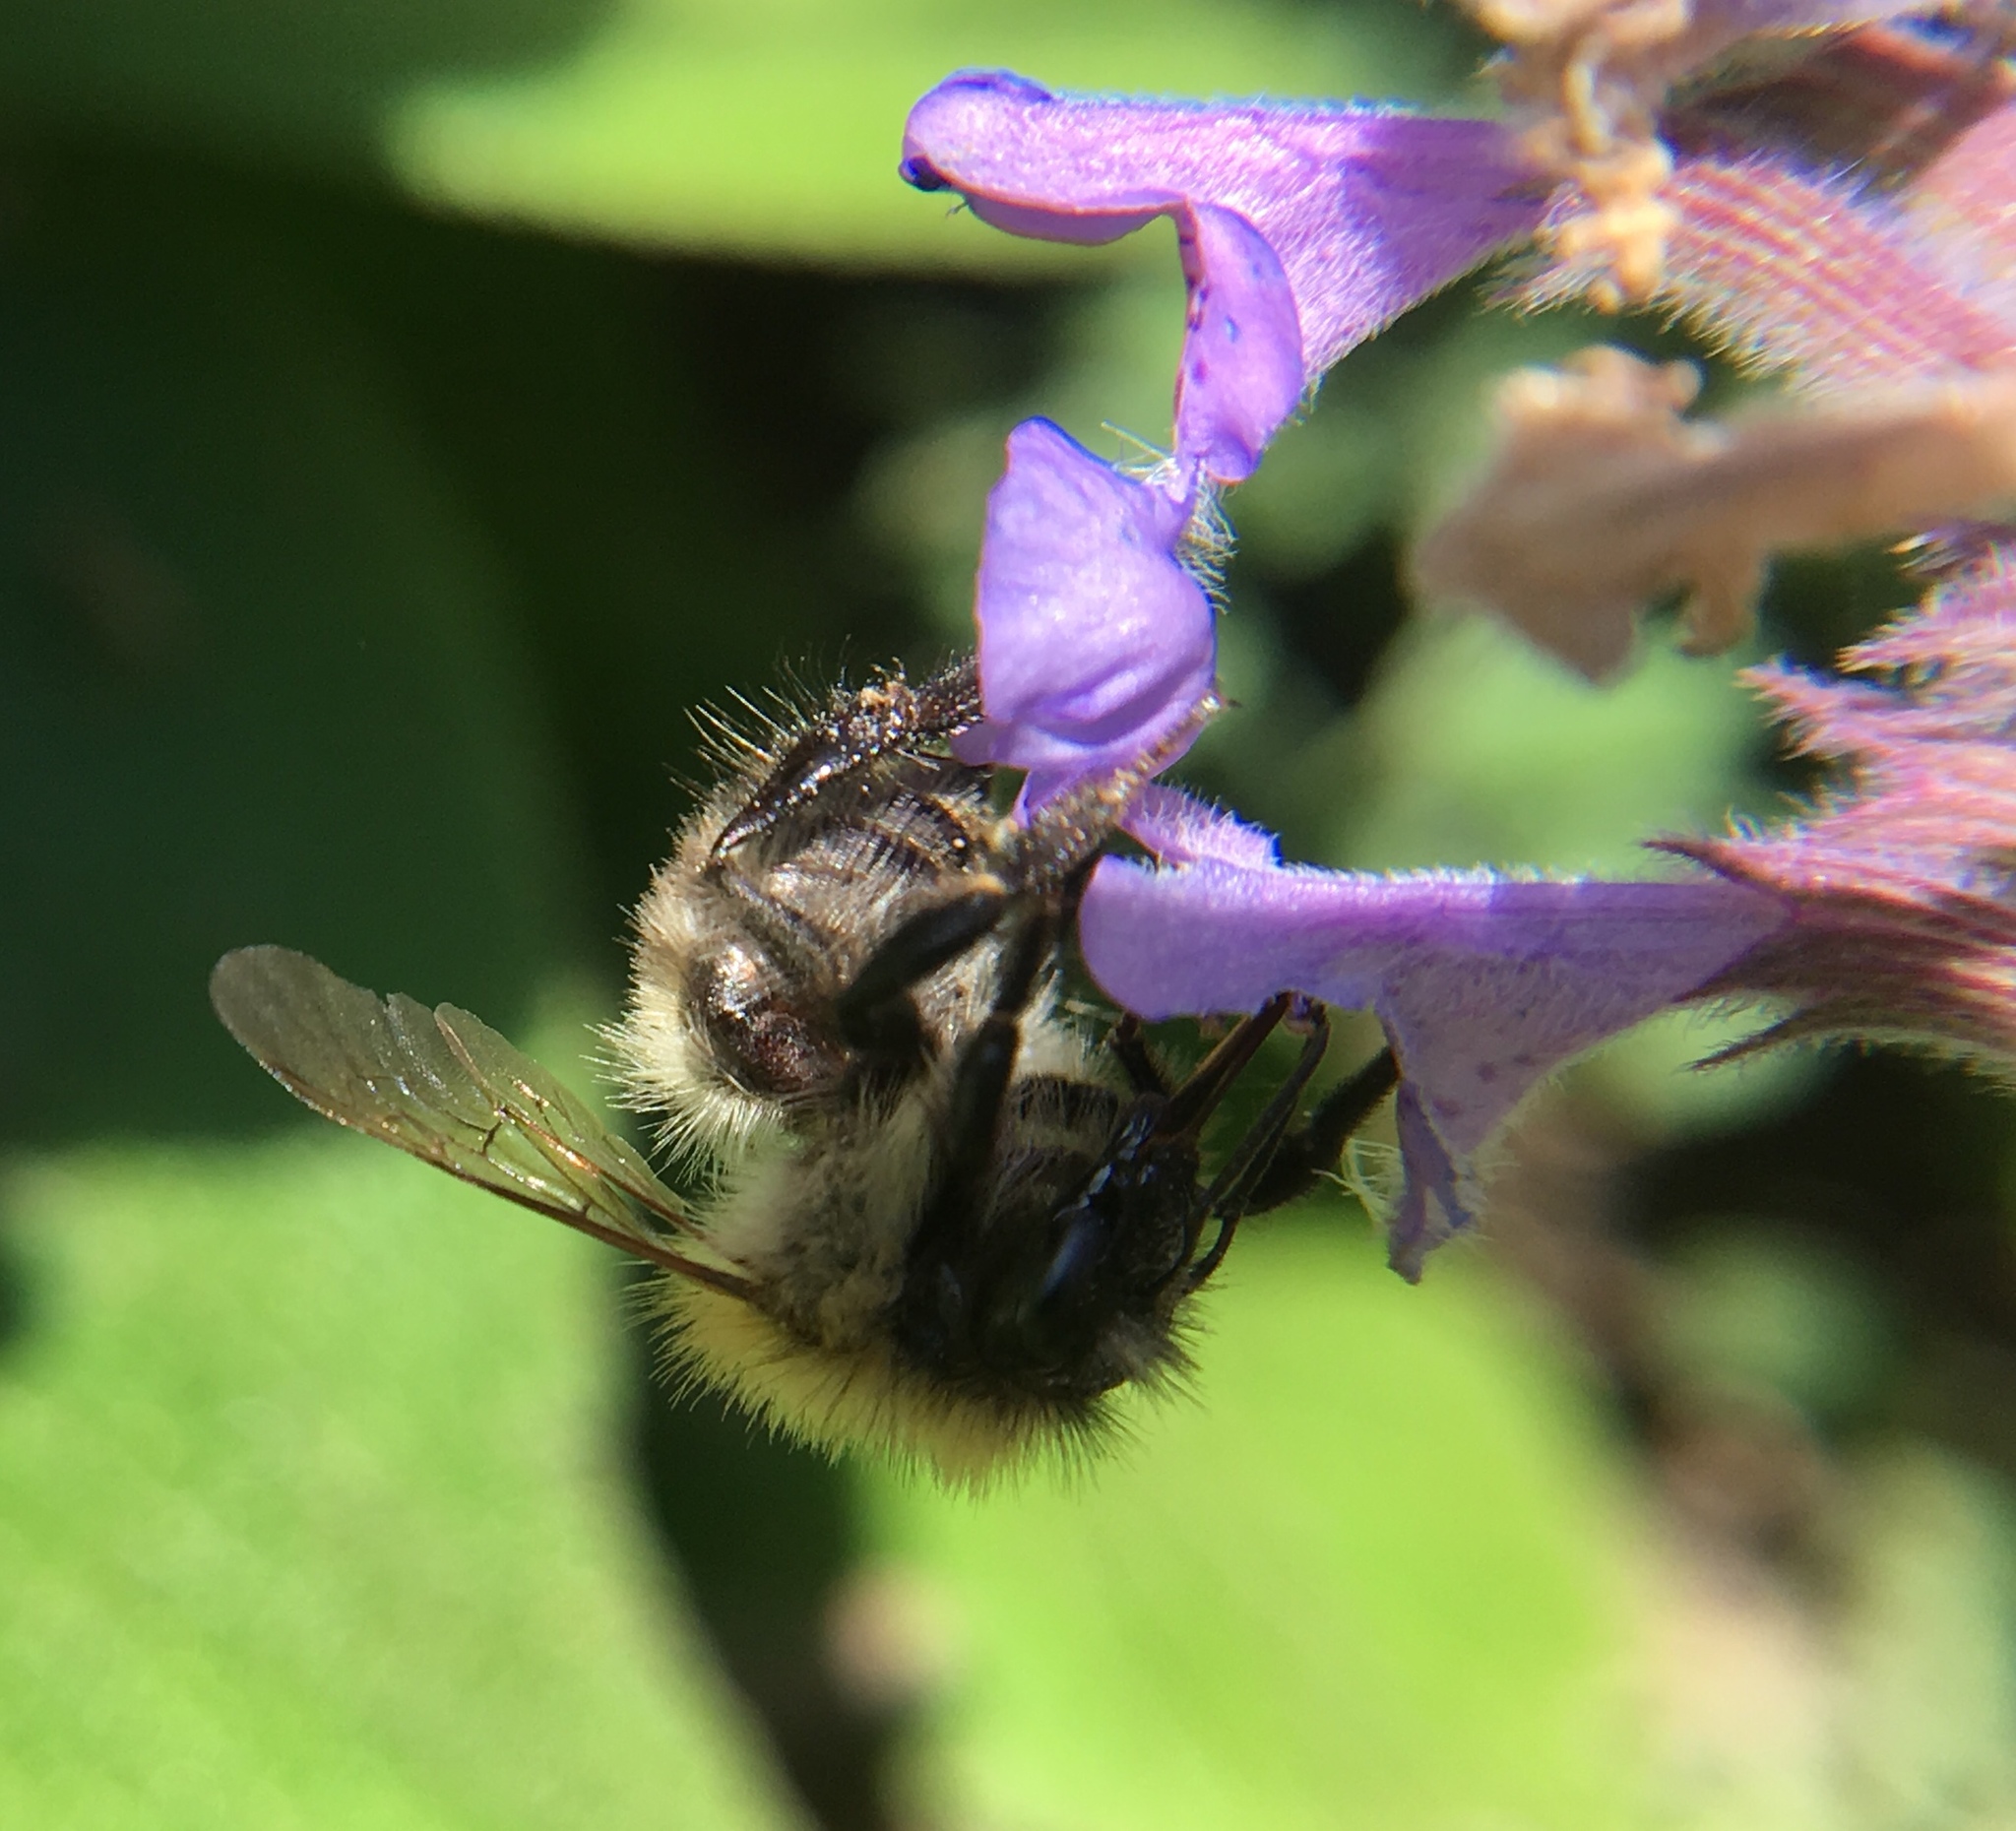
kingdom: Animalia
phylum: Arthropoda
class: Insecta
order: Hymenoptera
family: Apidae
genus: Bombus
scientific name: Bombus pascuorum
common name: Common carder bee
